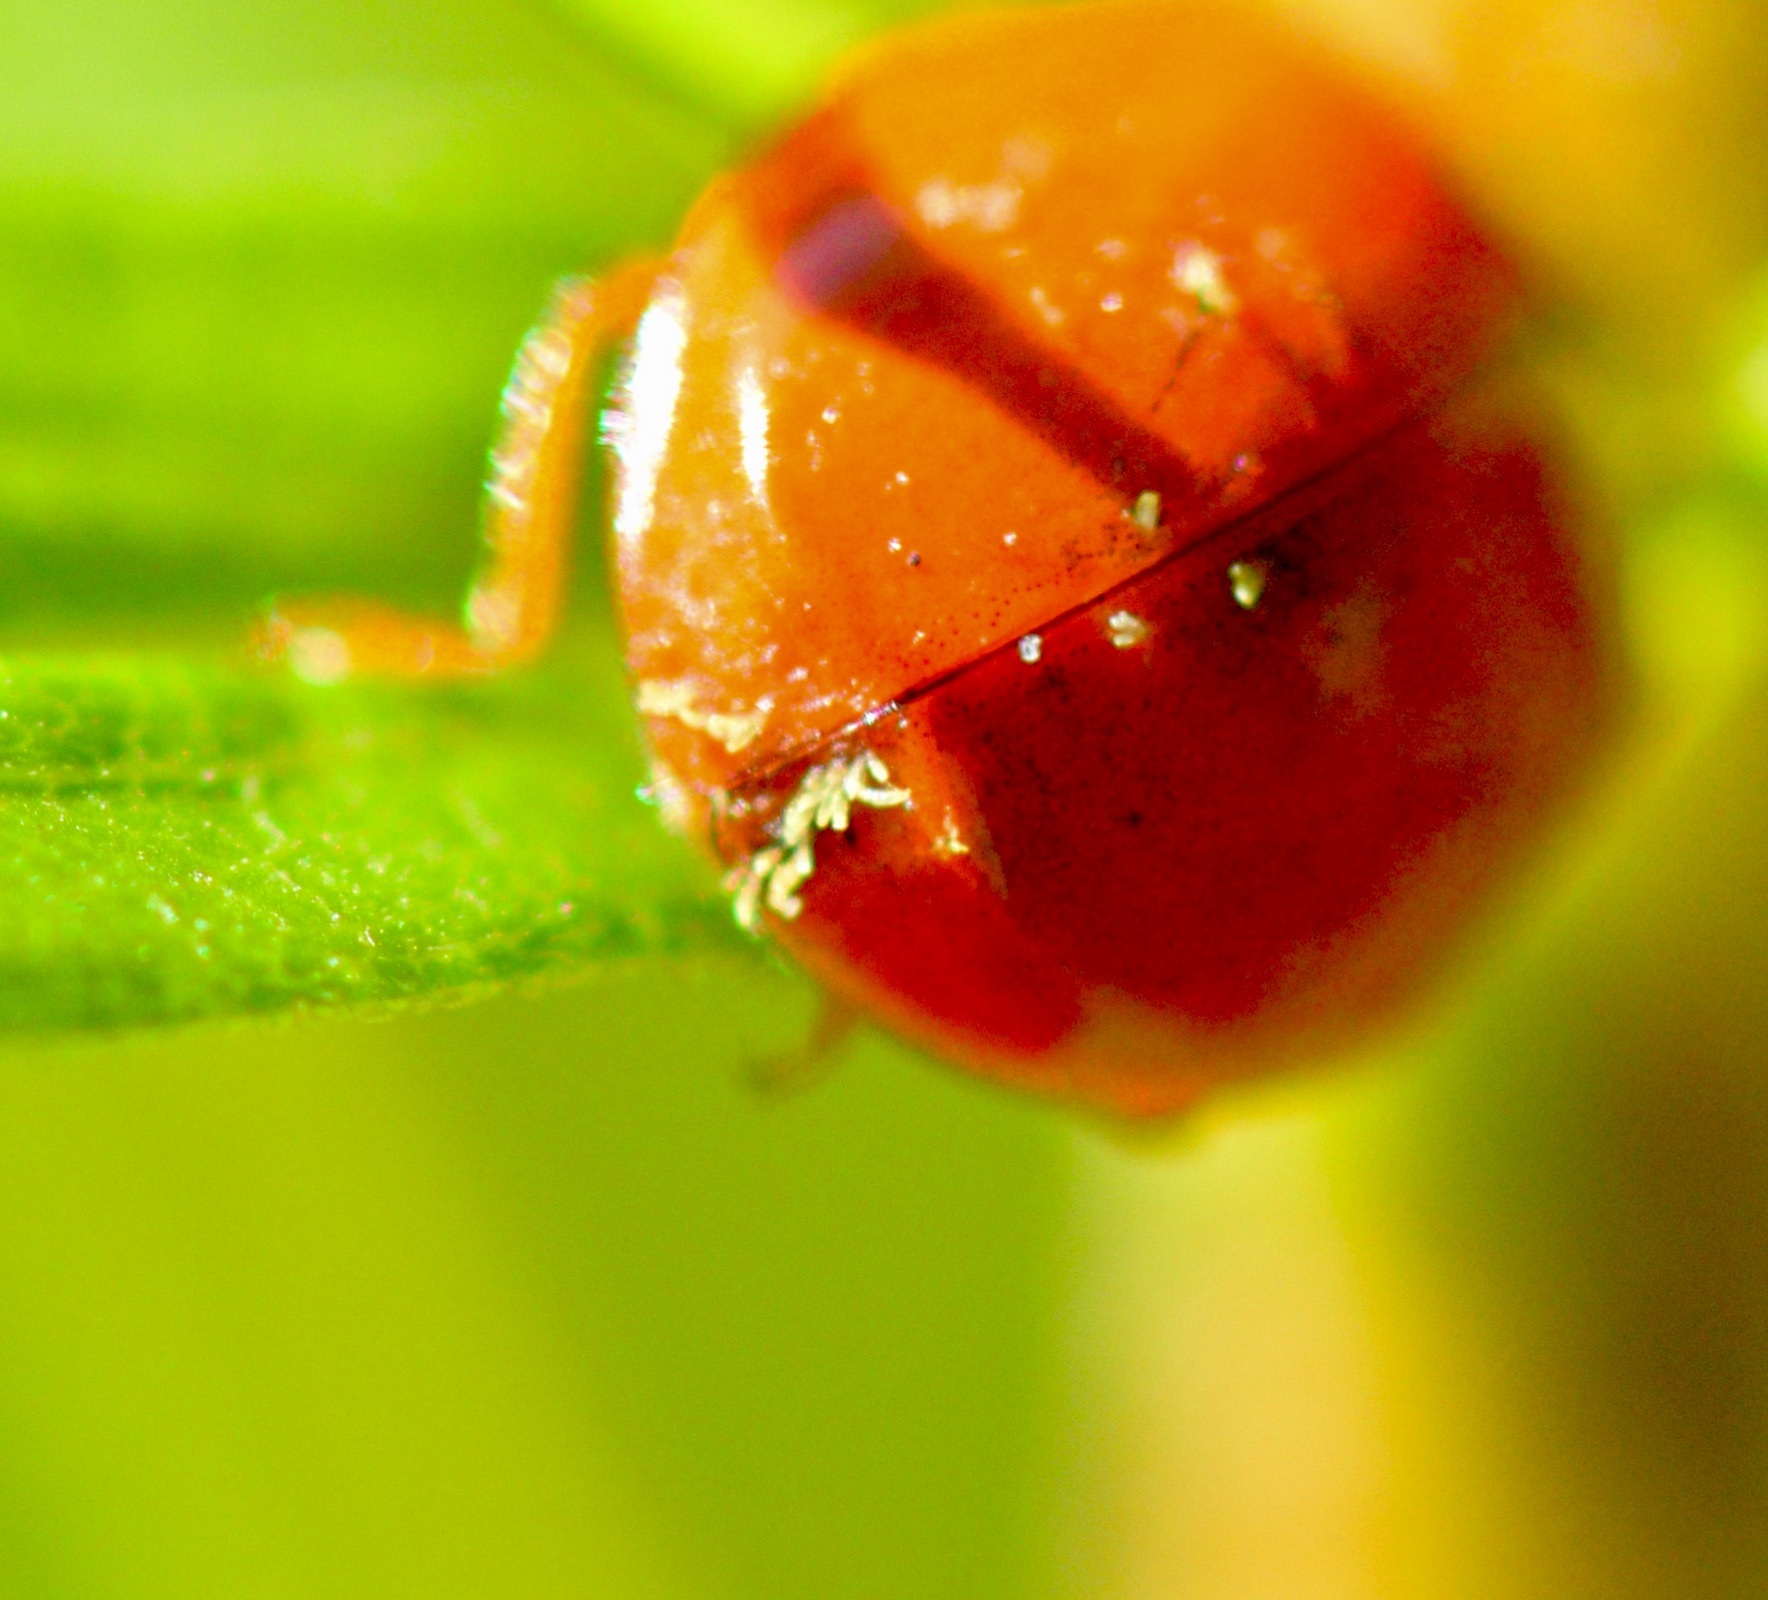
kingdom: Fungi
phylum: Ascomycota
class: Laboulbeniomycetes
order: Laboulbeniales
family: Laboulbeniaceae
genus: Hesperomyces
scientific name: Hesperomyces harmoniae
